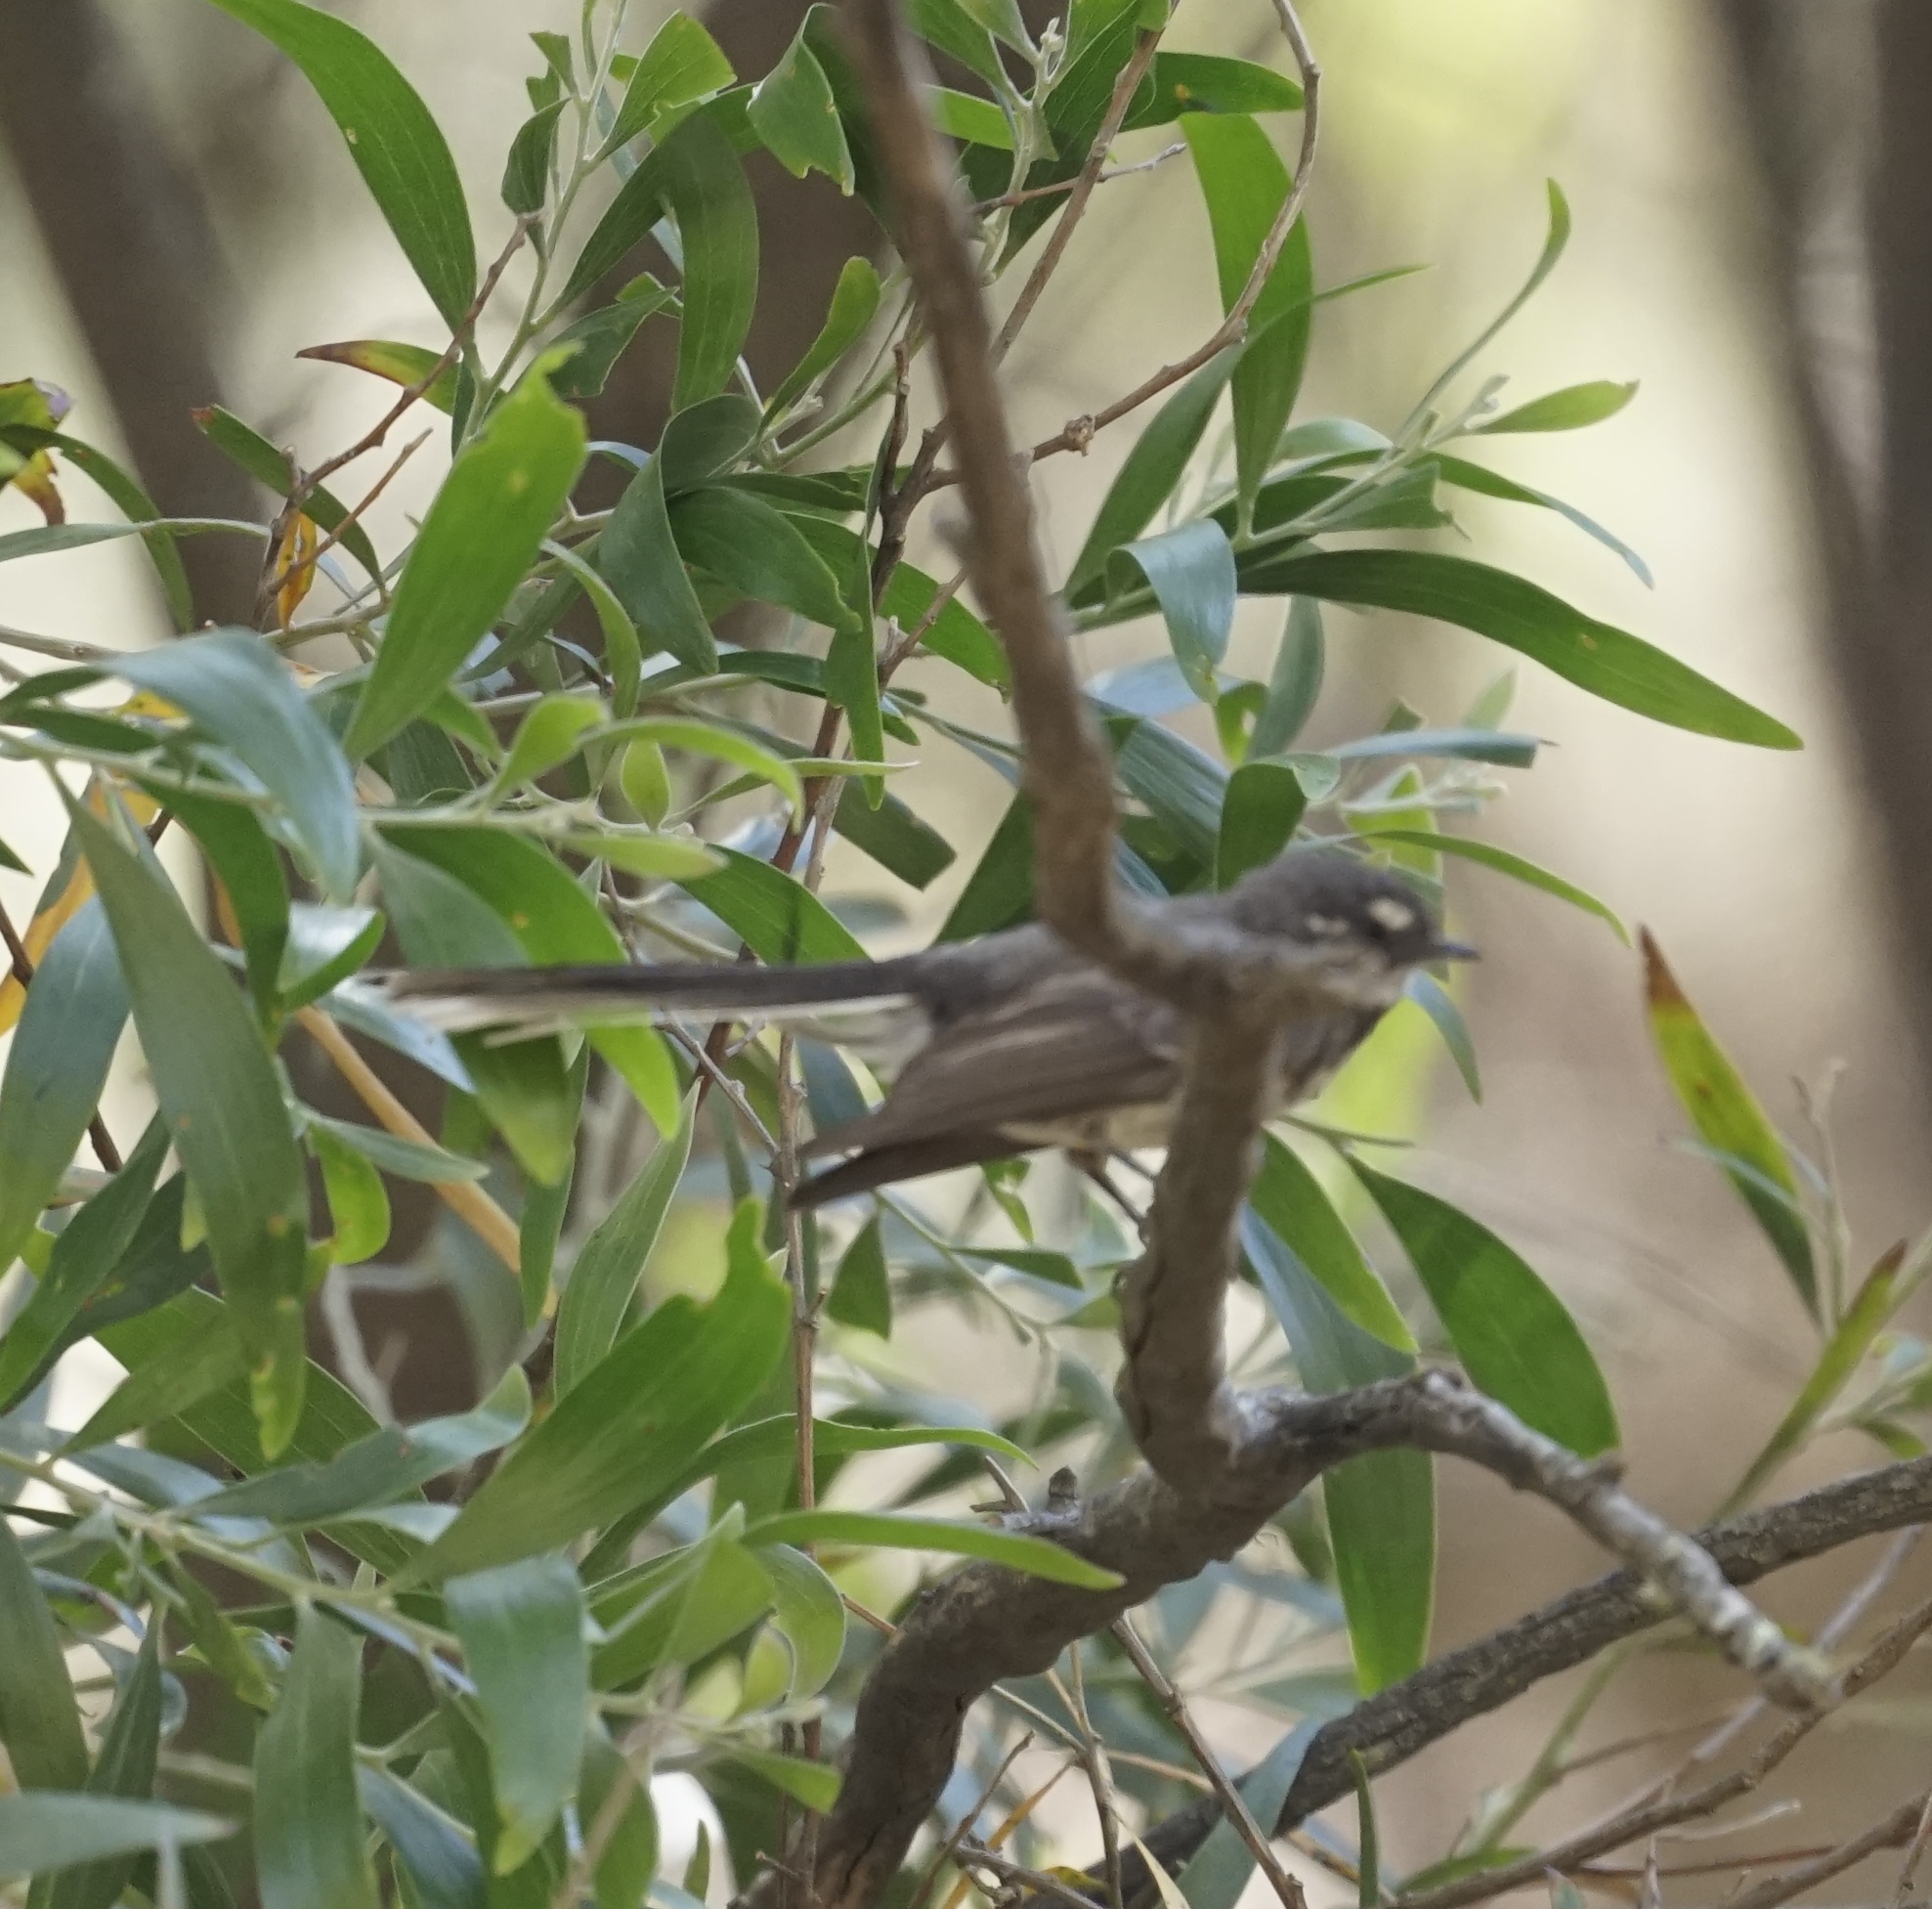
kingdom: Animalia
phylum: Chordata
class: Aves
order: Passeriformes
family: Rhipiduridae
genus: Rhipidura
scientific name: Rhipidura albiscapa
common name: Grey fantail
